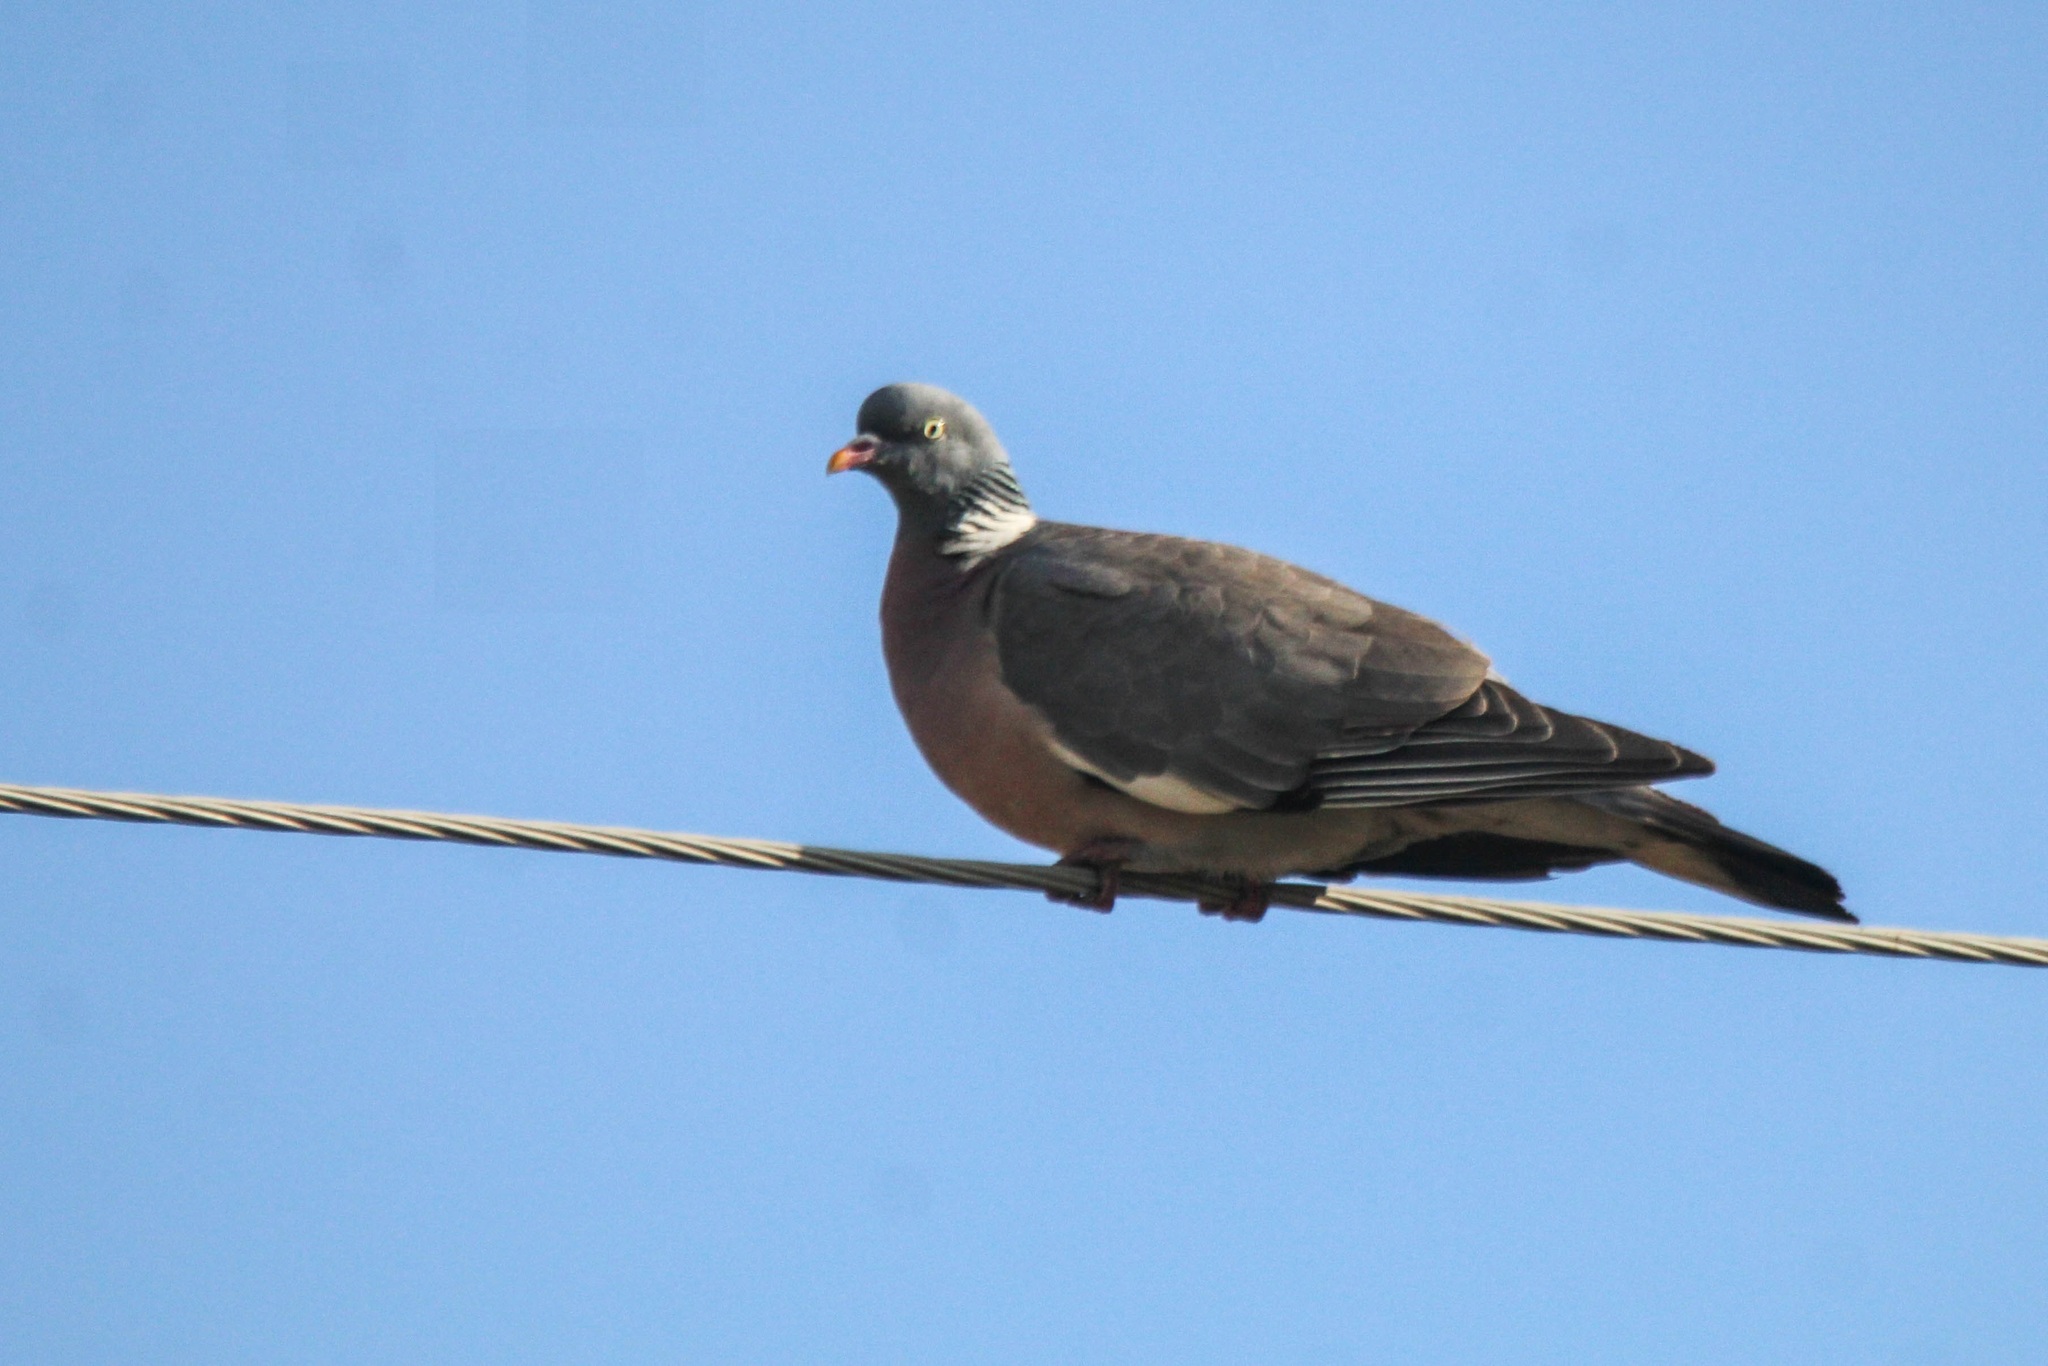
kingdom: Animalia
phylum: Chordata
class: Aves
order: Columbiformes
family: Columbidae
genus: Columba
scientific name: Columba palumbus
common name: Common wood pigeon
